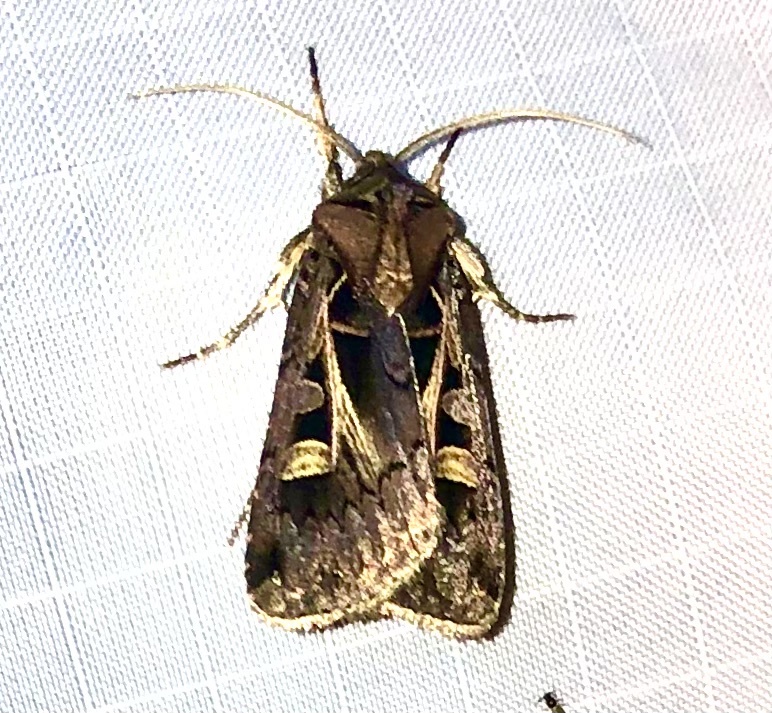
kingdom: Animalia
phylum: Arthropoda
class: Insecta
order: Lepidoptera
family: Noctuidae
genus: Feltia
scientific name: Feltia herilis
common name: Master's dart
